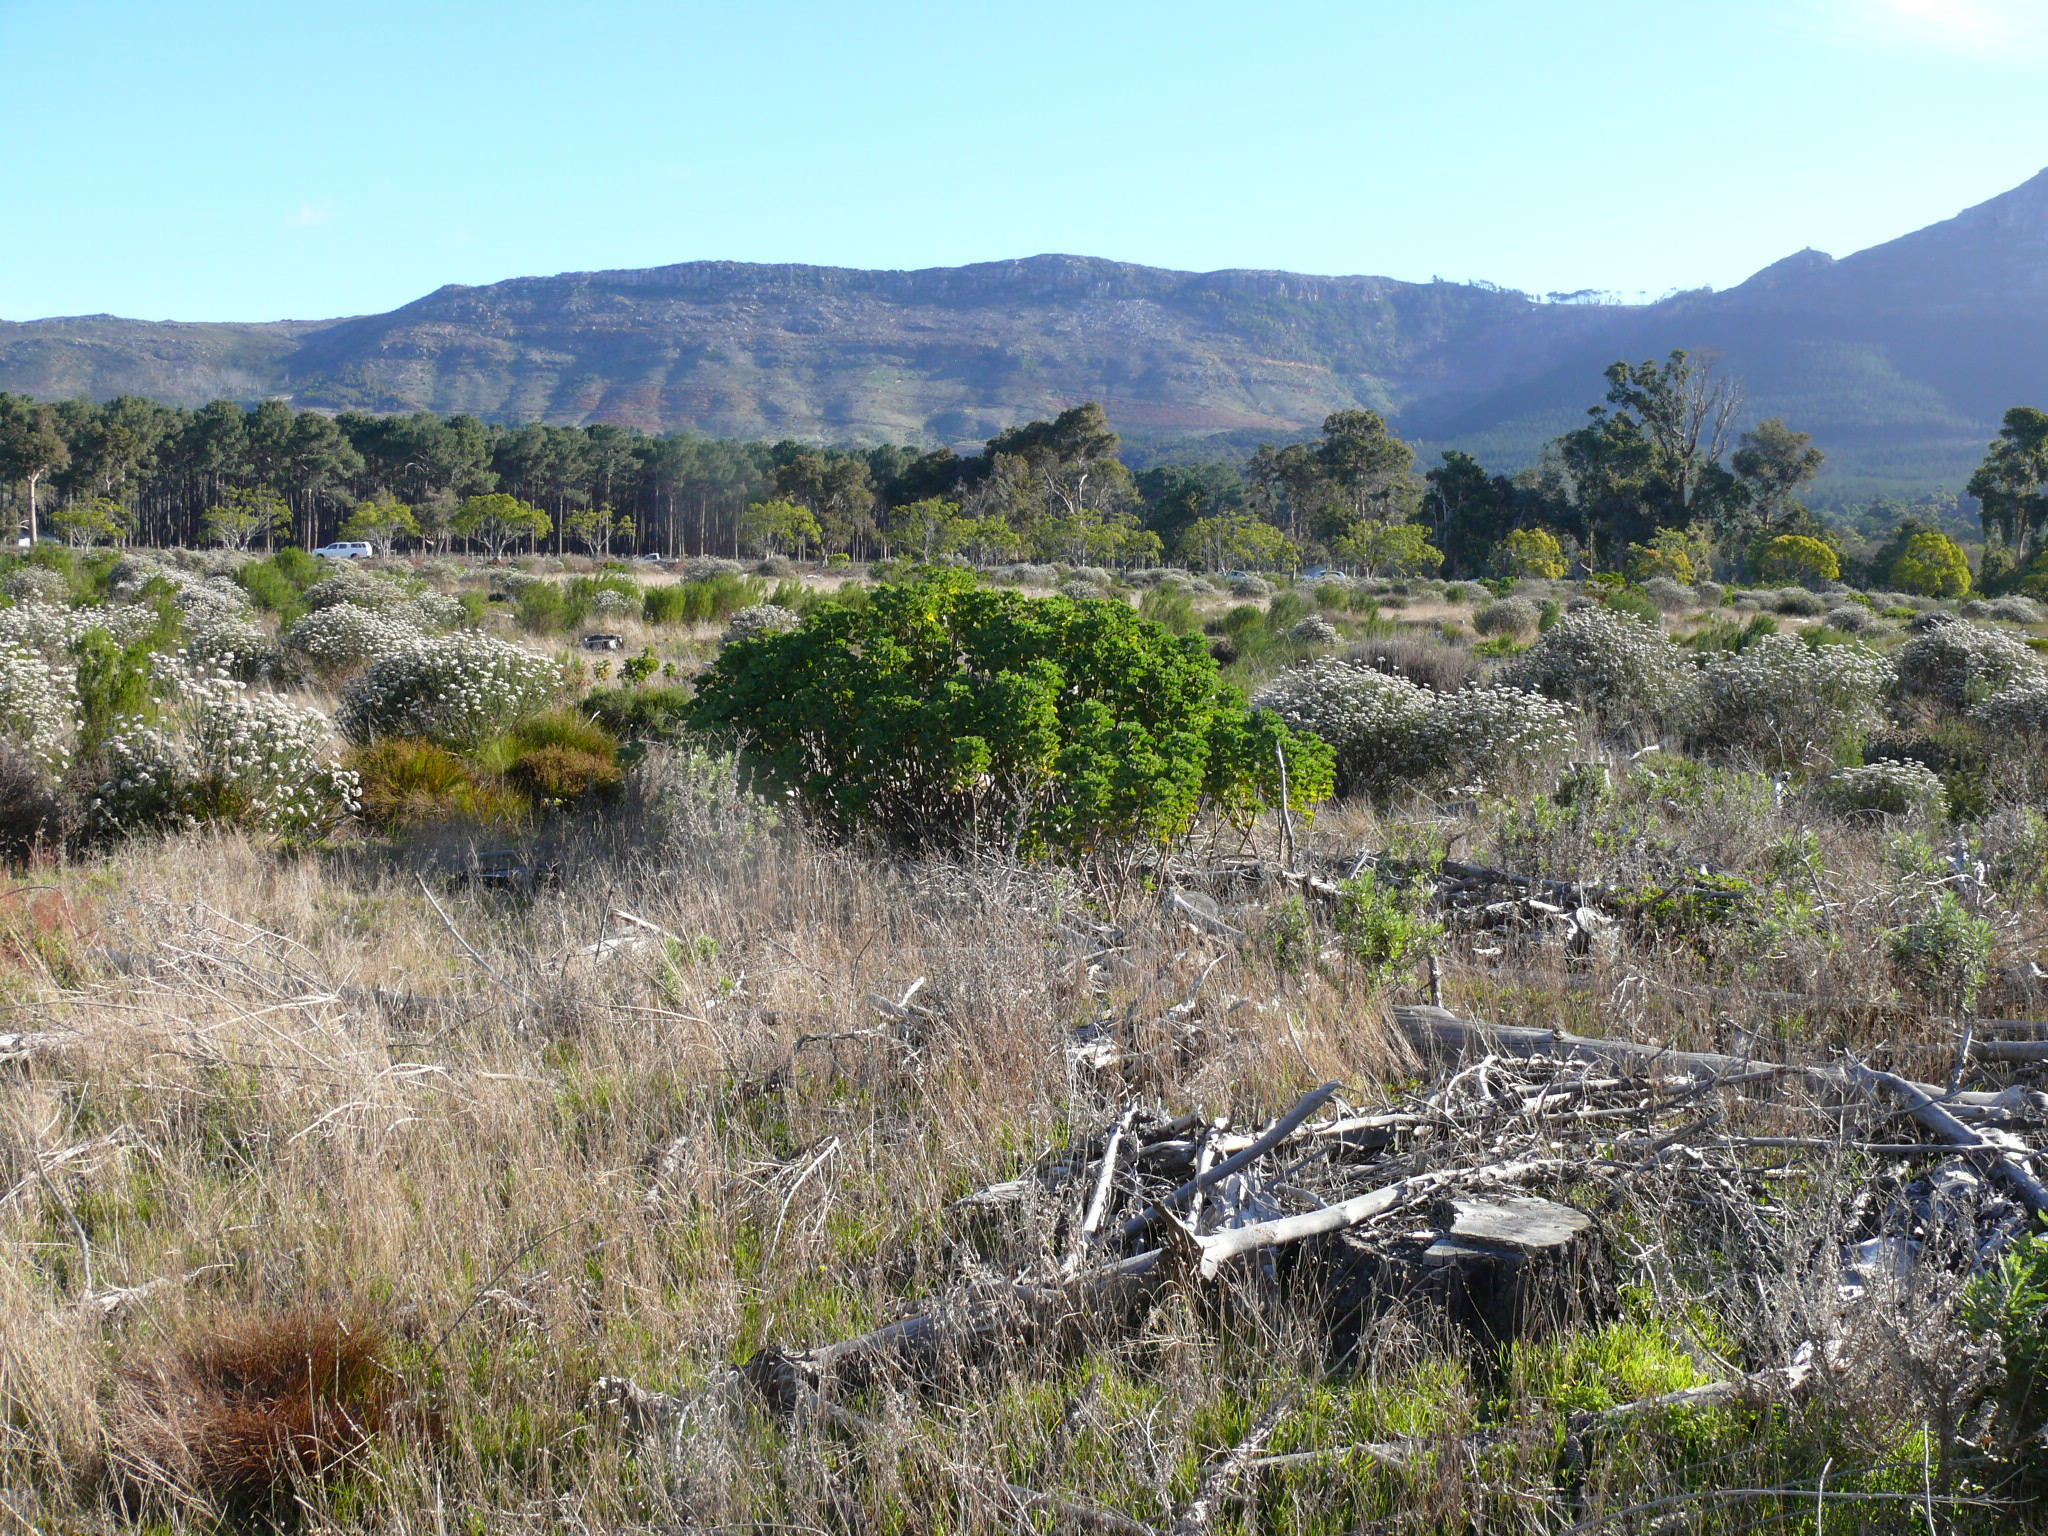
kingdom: Plantae
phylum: Tracheophyta
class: Magnoliopsida
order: Asterales
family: Asteraceae
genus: Osteospermum
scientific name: Osteospermum moniliferum
